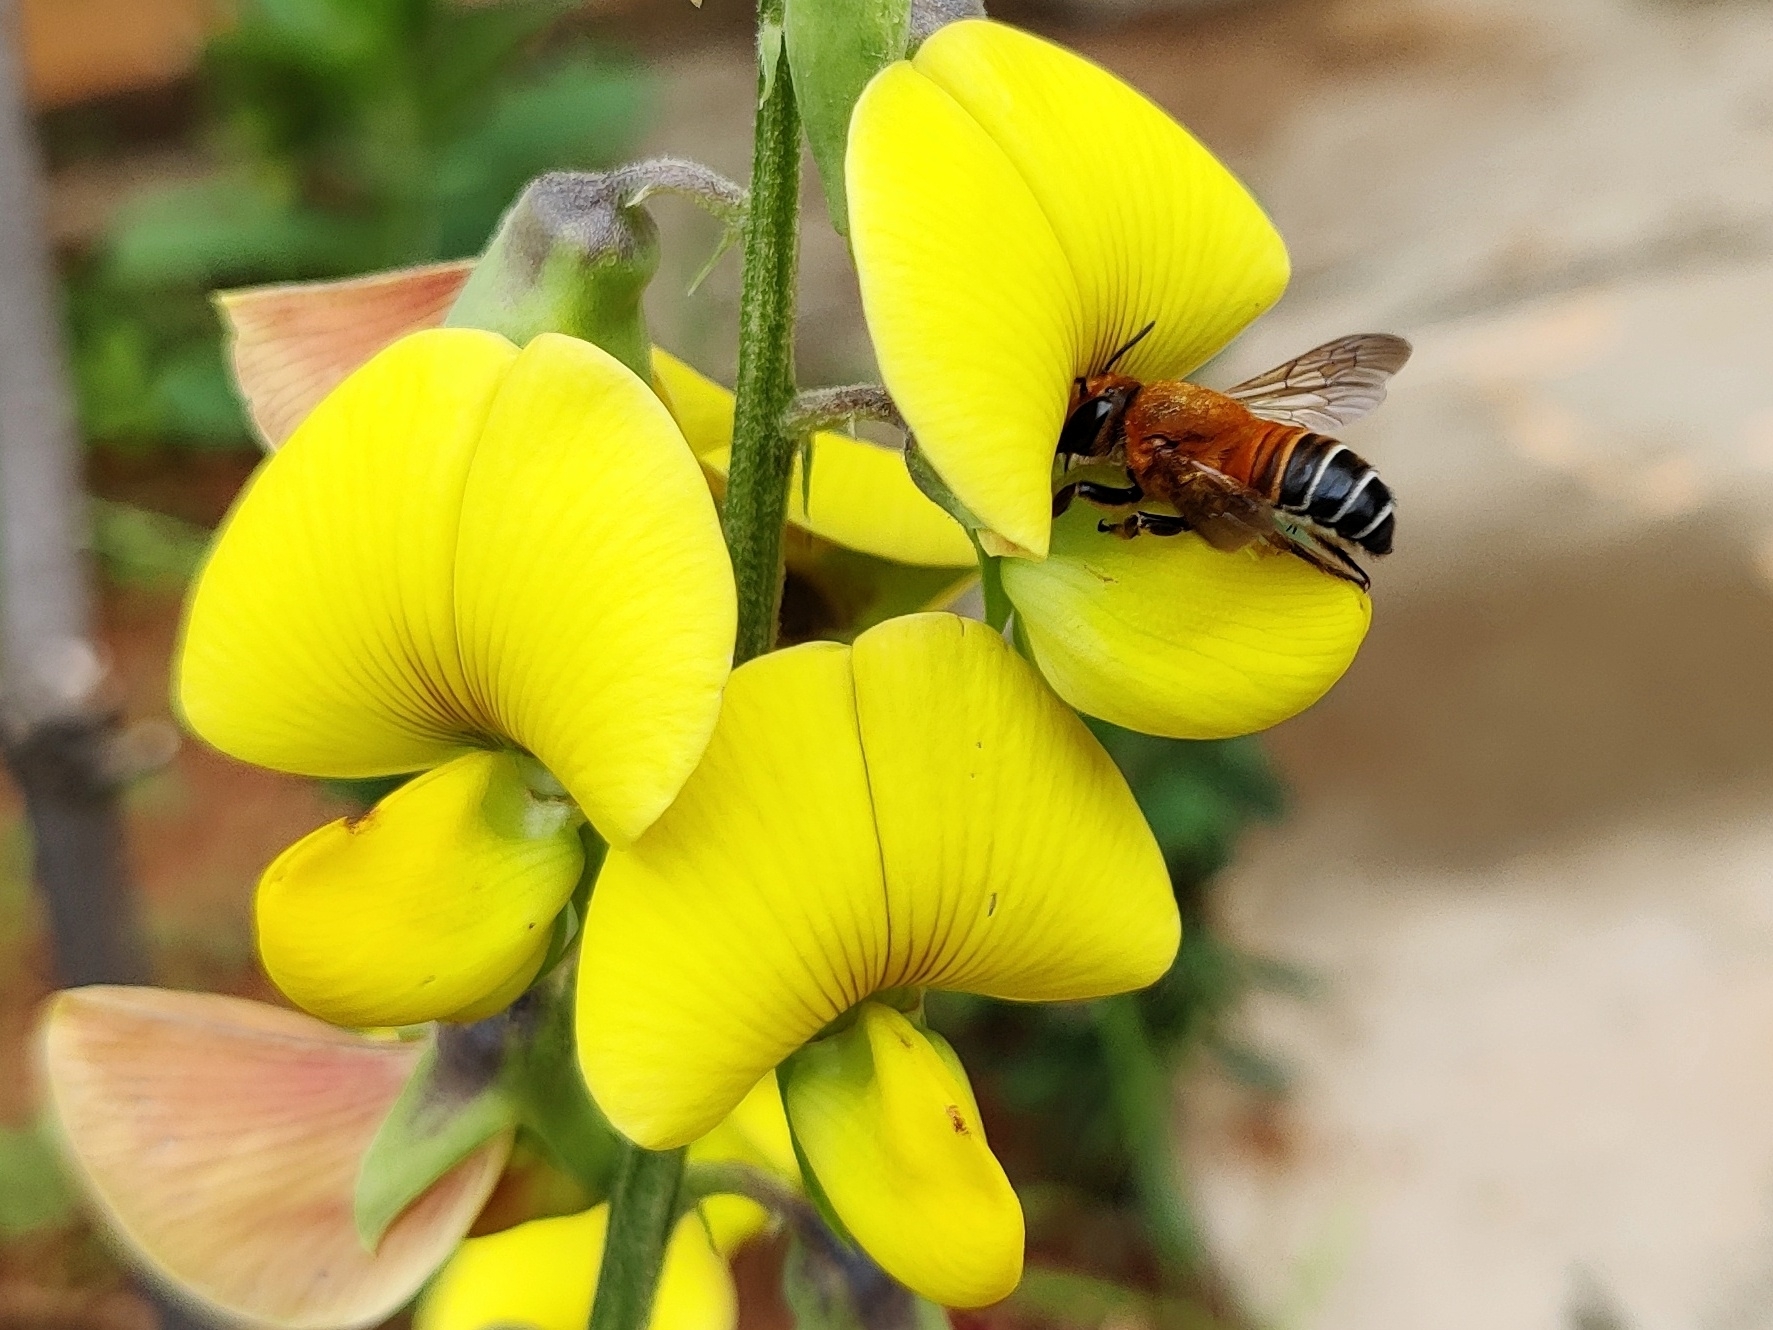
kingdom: Animalia
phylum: Arthropoda
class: Insecta
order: Hymenoptera
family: Megachilidae
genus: Megachile
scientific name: Megachile lanata
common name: Wooly wall bee
